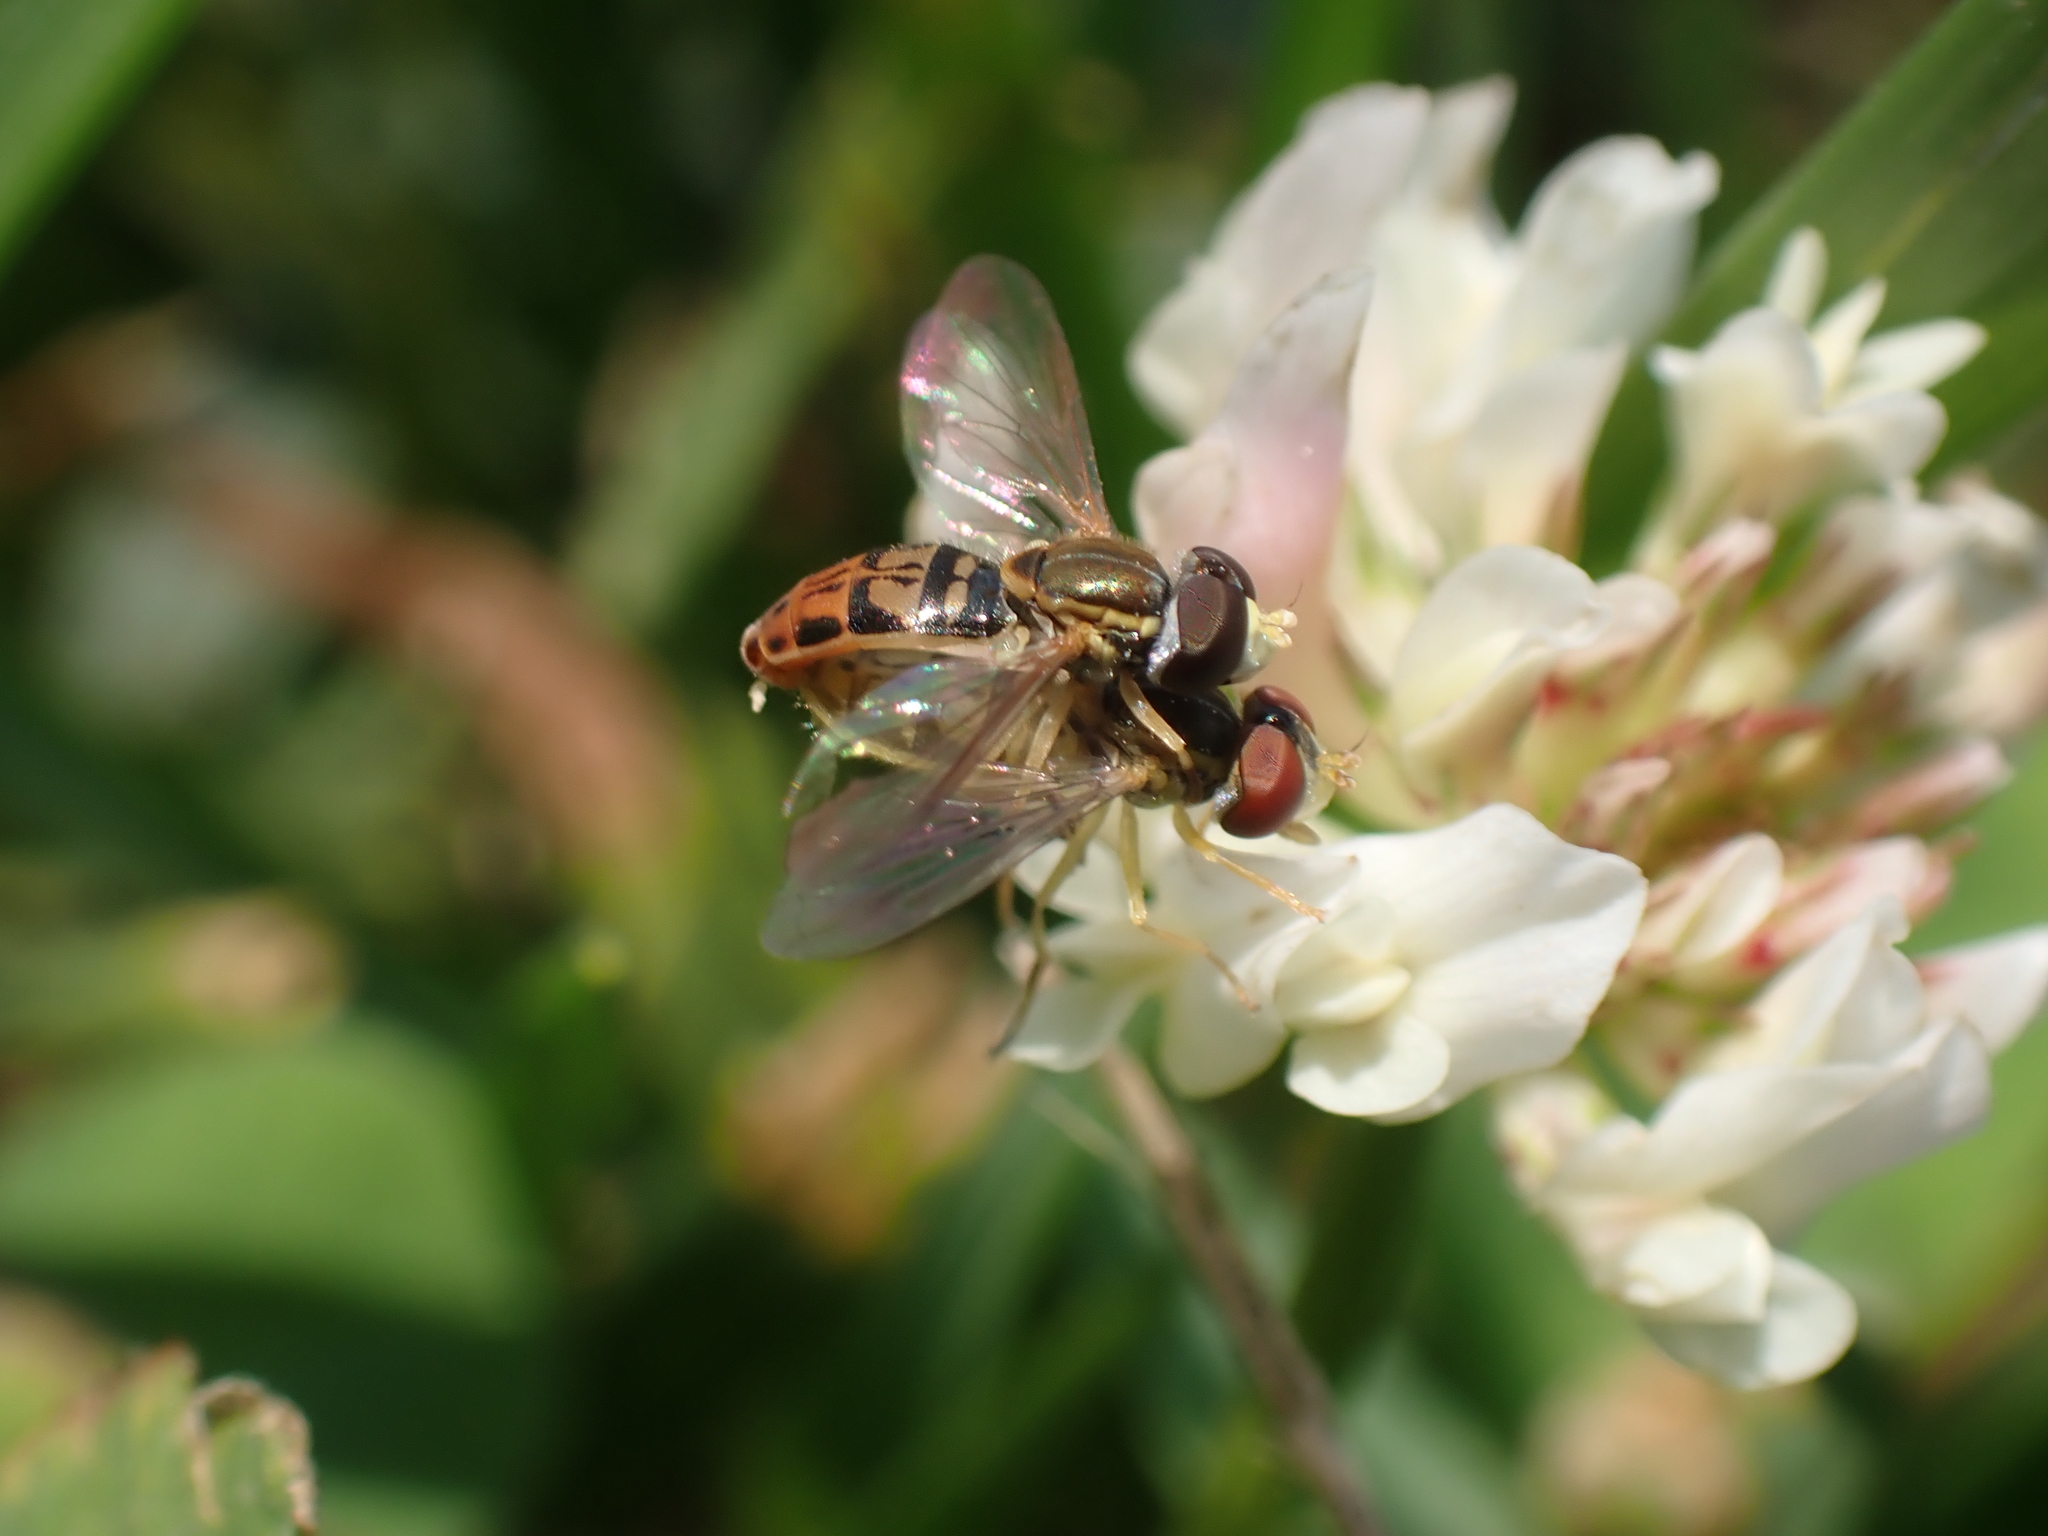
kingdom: Animalia
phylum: Arthropoda
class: Insecta
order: Diptera
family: Syrphidae
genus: Toxomerus
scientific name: Toxomerus marginatus
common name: Syrphid fly
